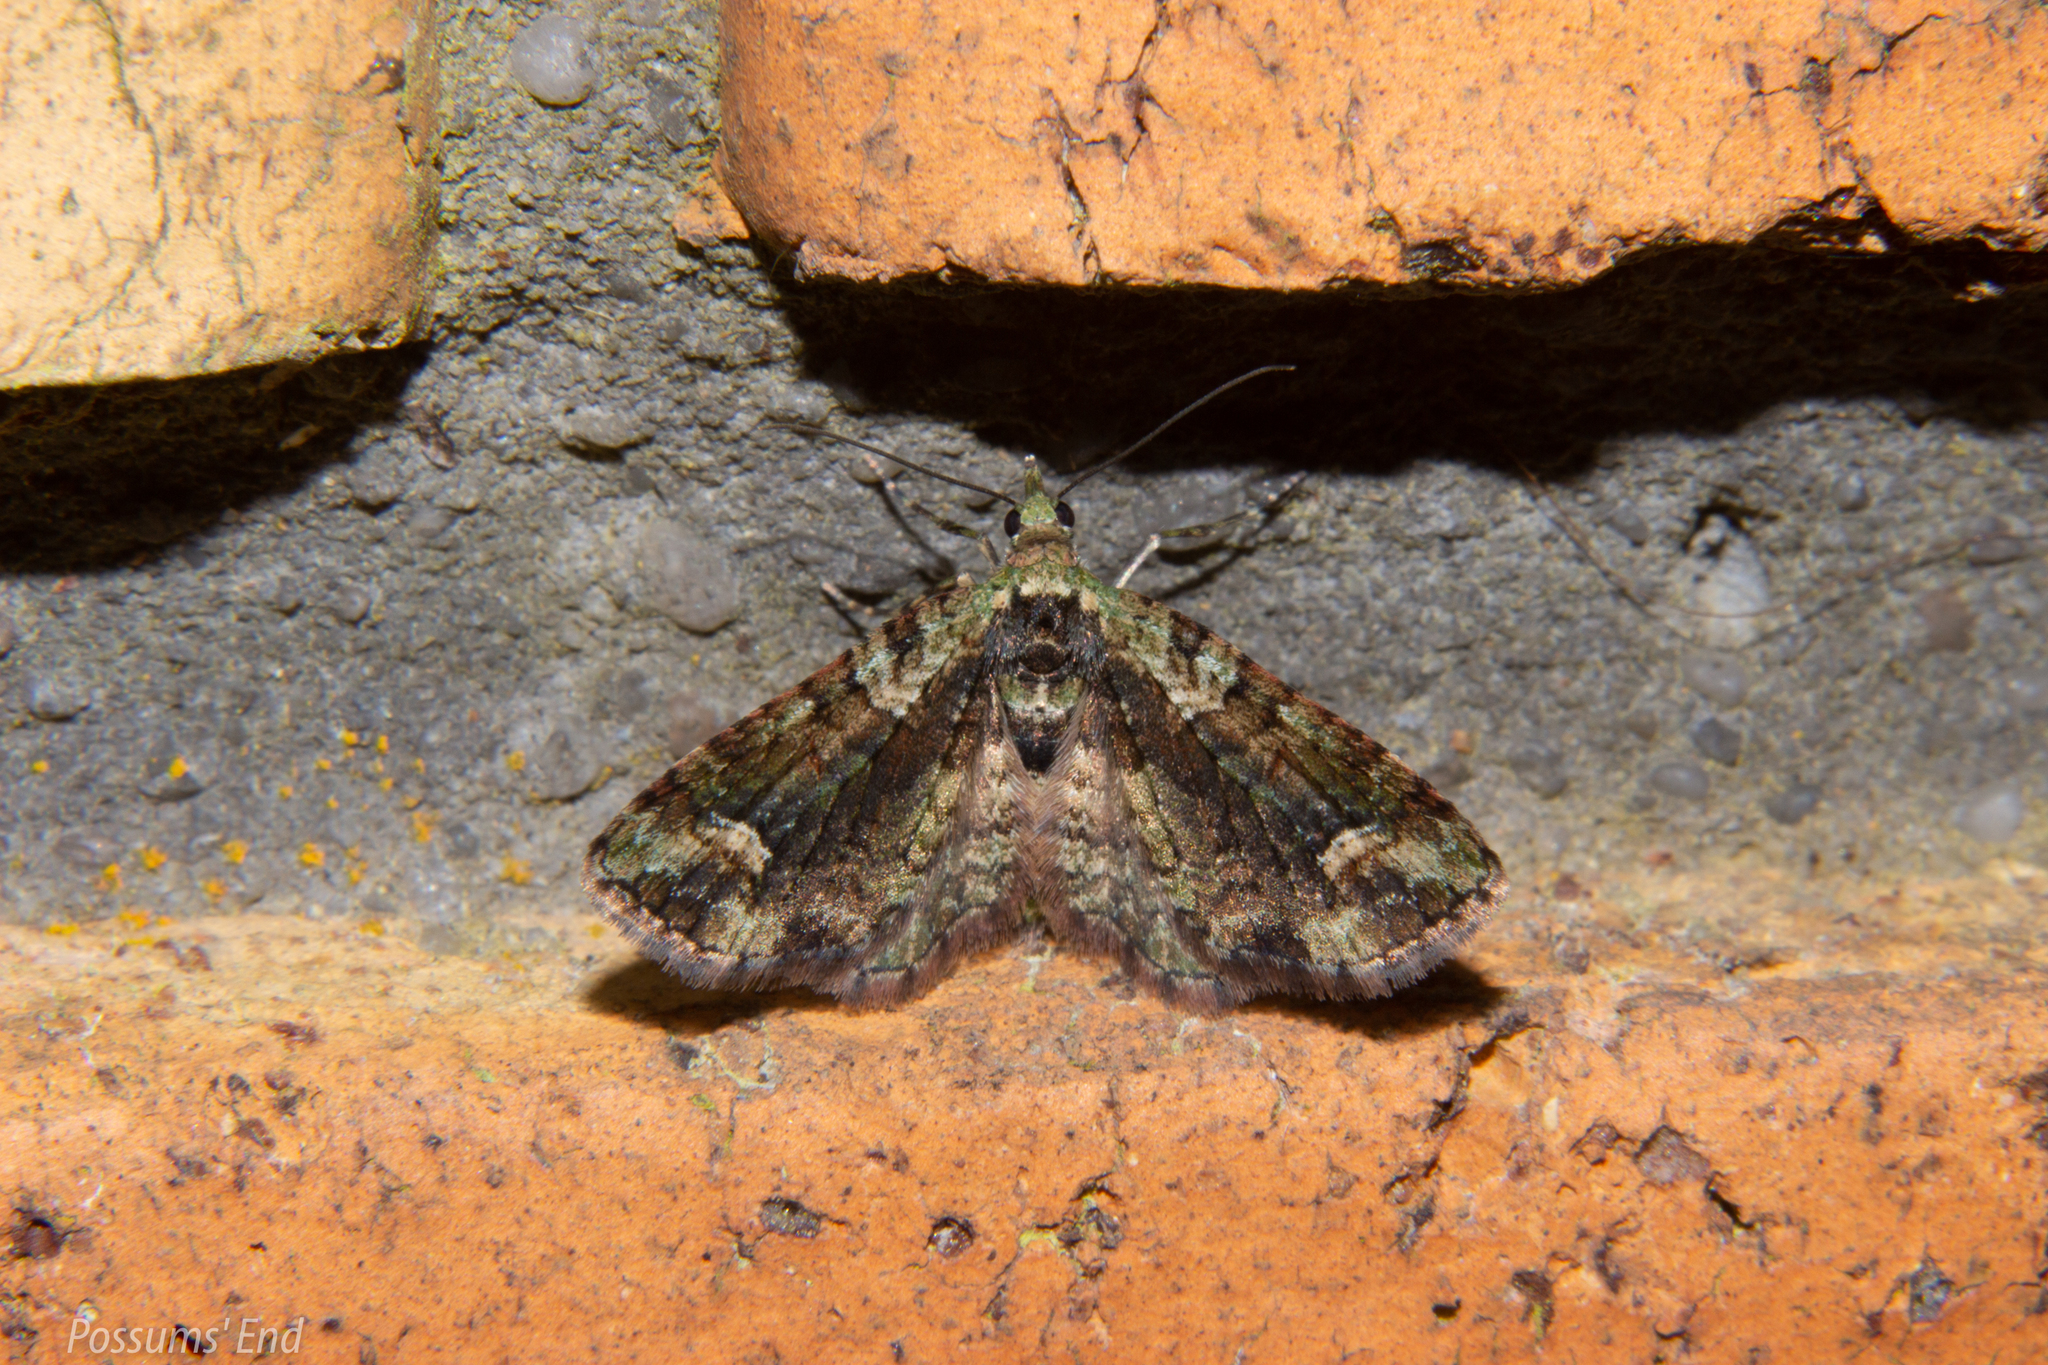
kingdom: Animalia
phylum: Arthropoda
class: Insecta
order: Lepidoptera
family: Geometridae
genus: Idaea
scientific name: Idaea mutanda
